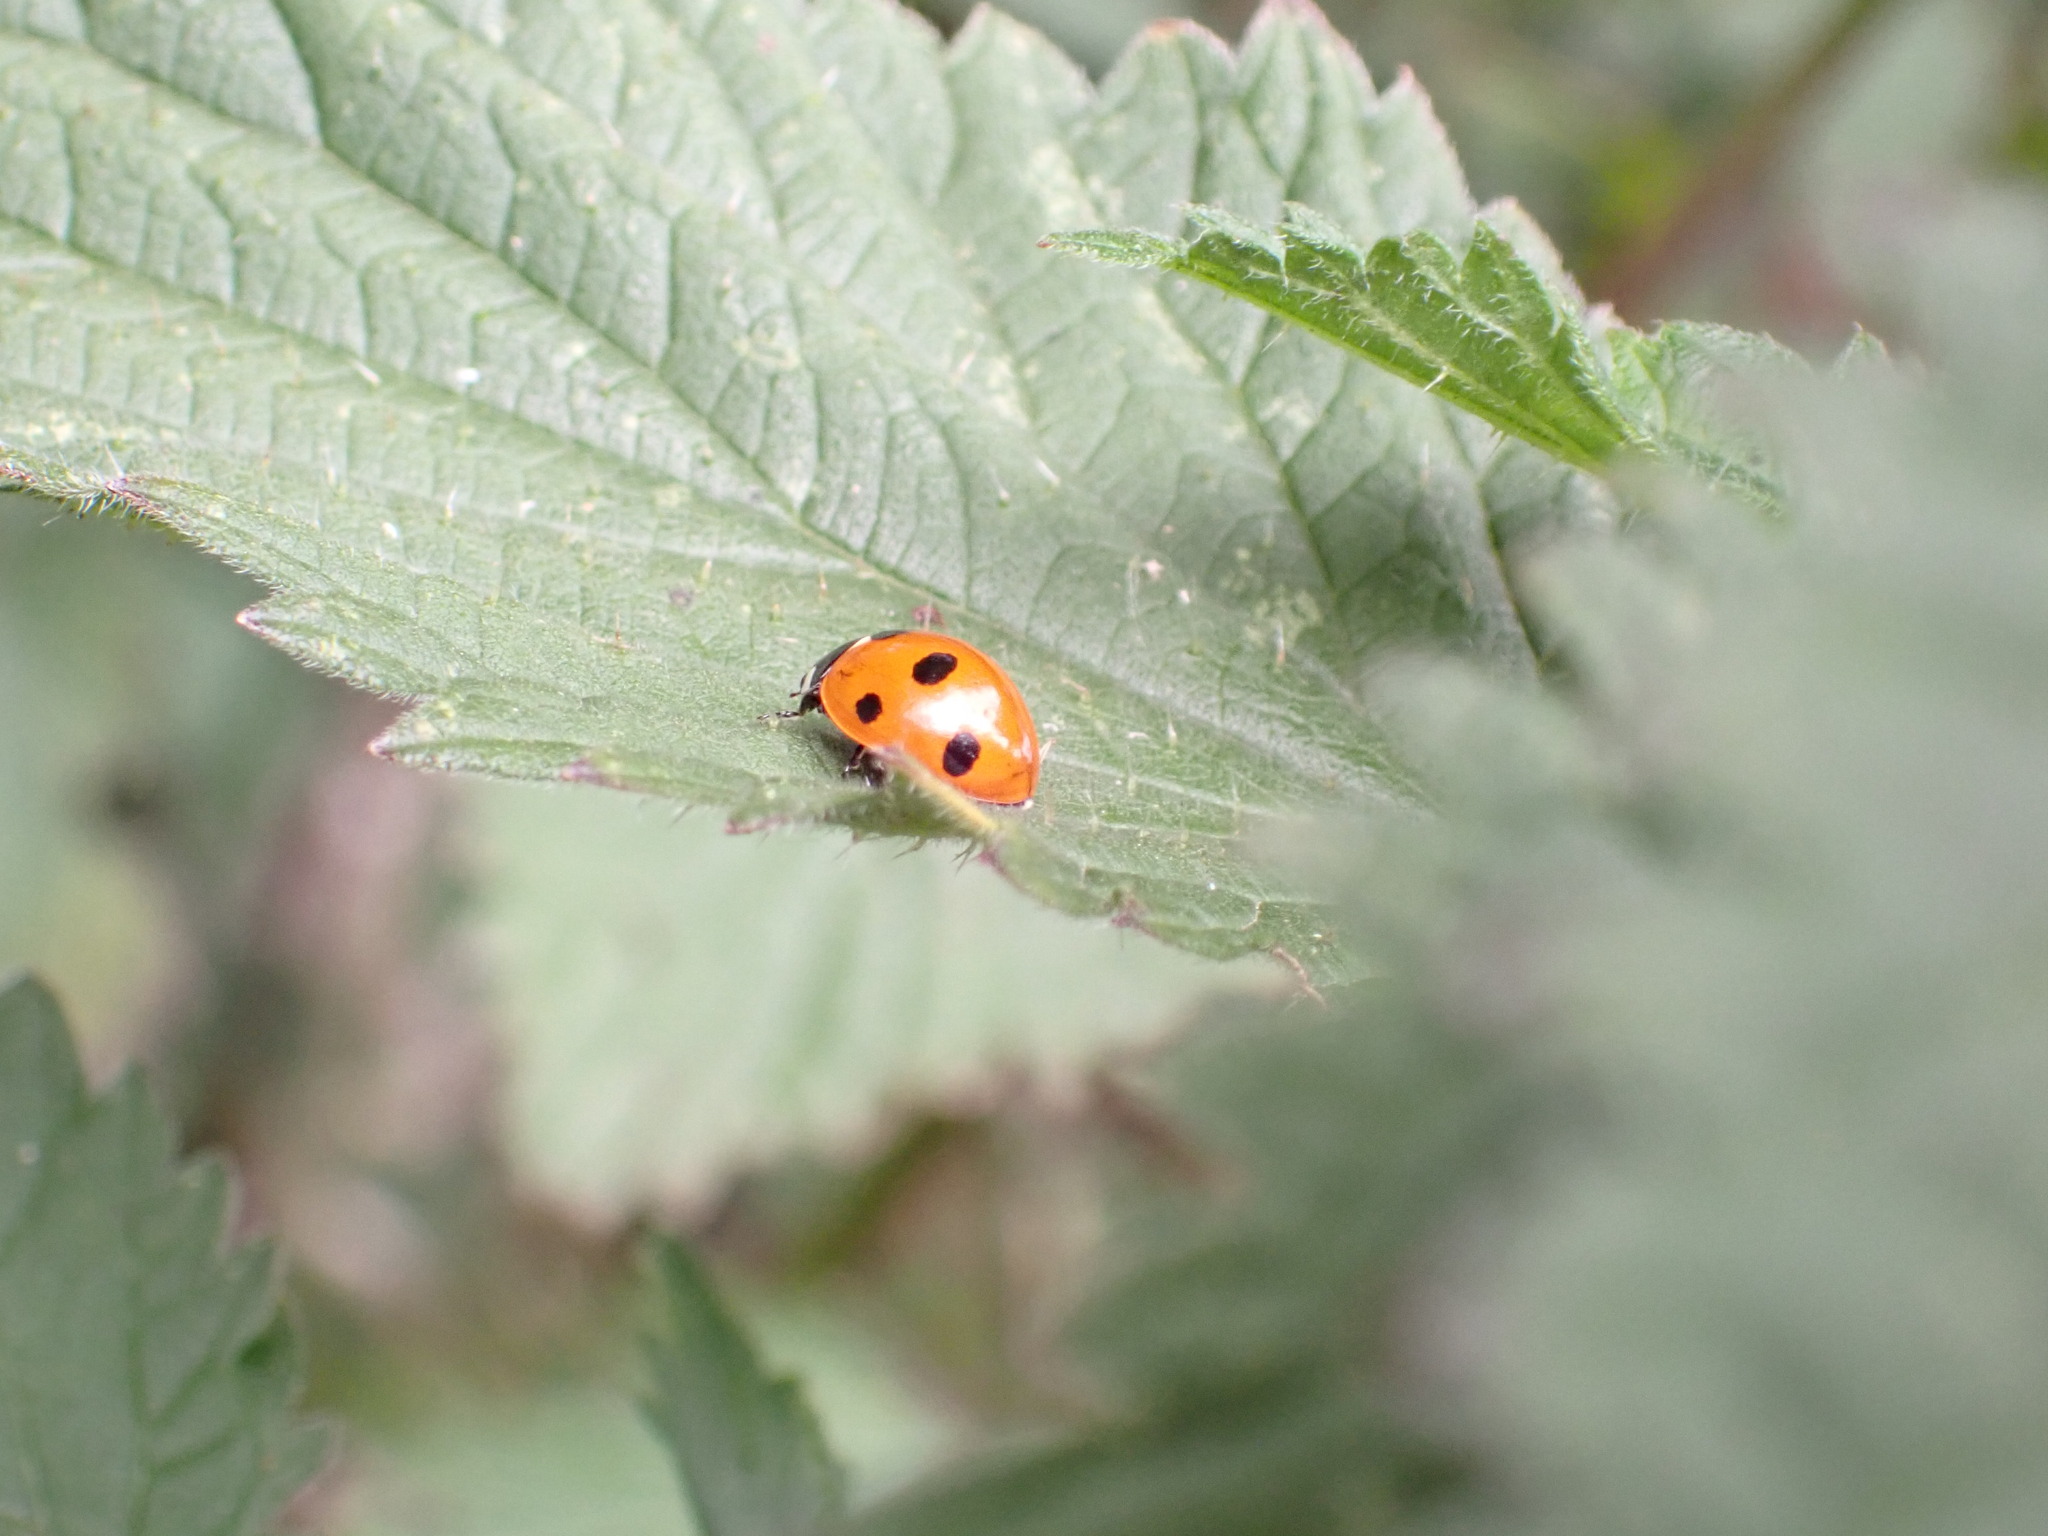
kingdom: Animalia
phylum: Arthropoda
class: Insecta
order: Coleoptera
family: Coccinellidae
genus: Coccinella
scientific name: Coccinella septempunctata
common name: Sevenspotted lady beetle
